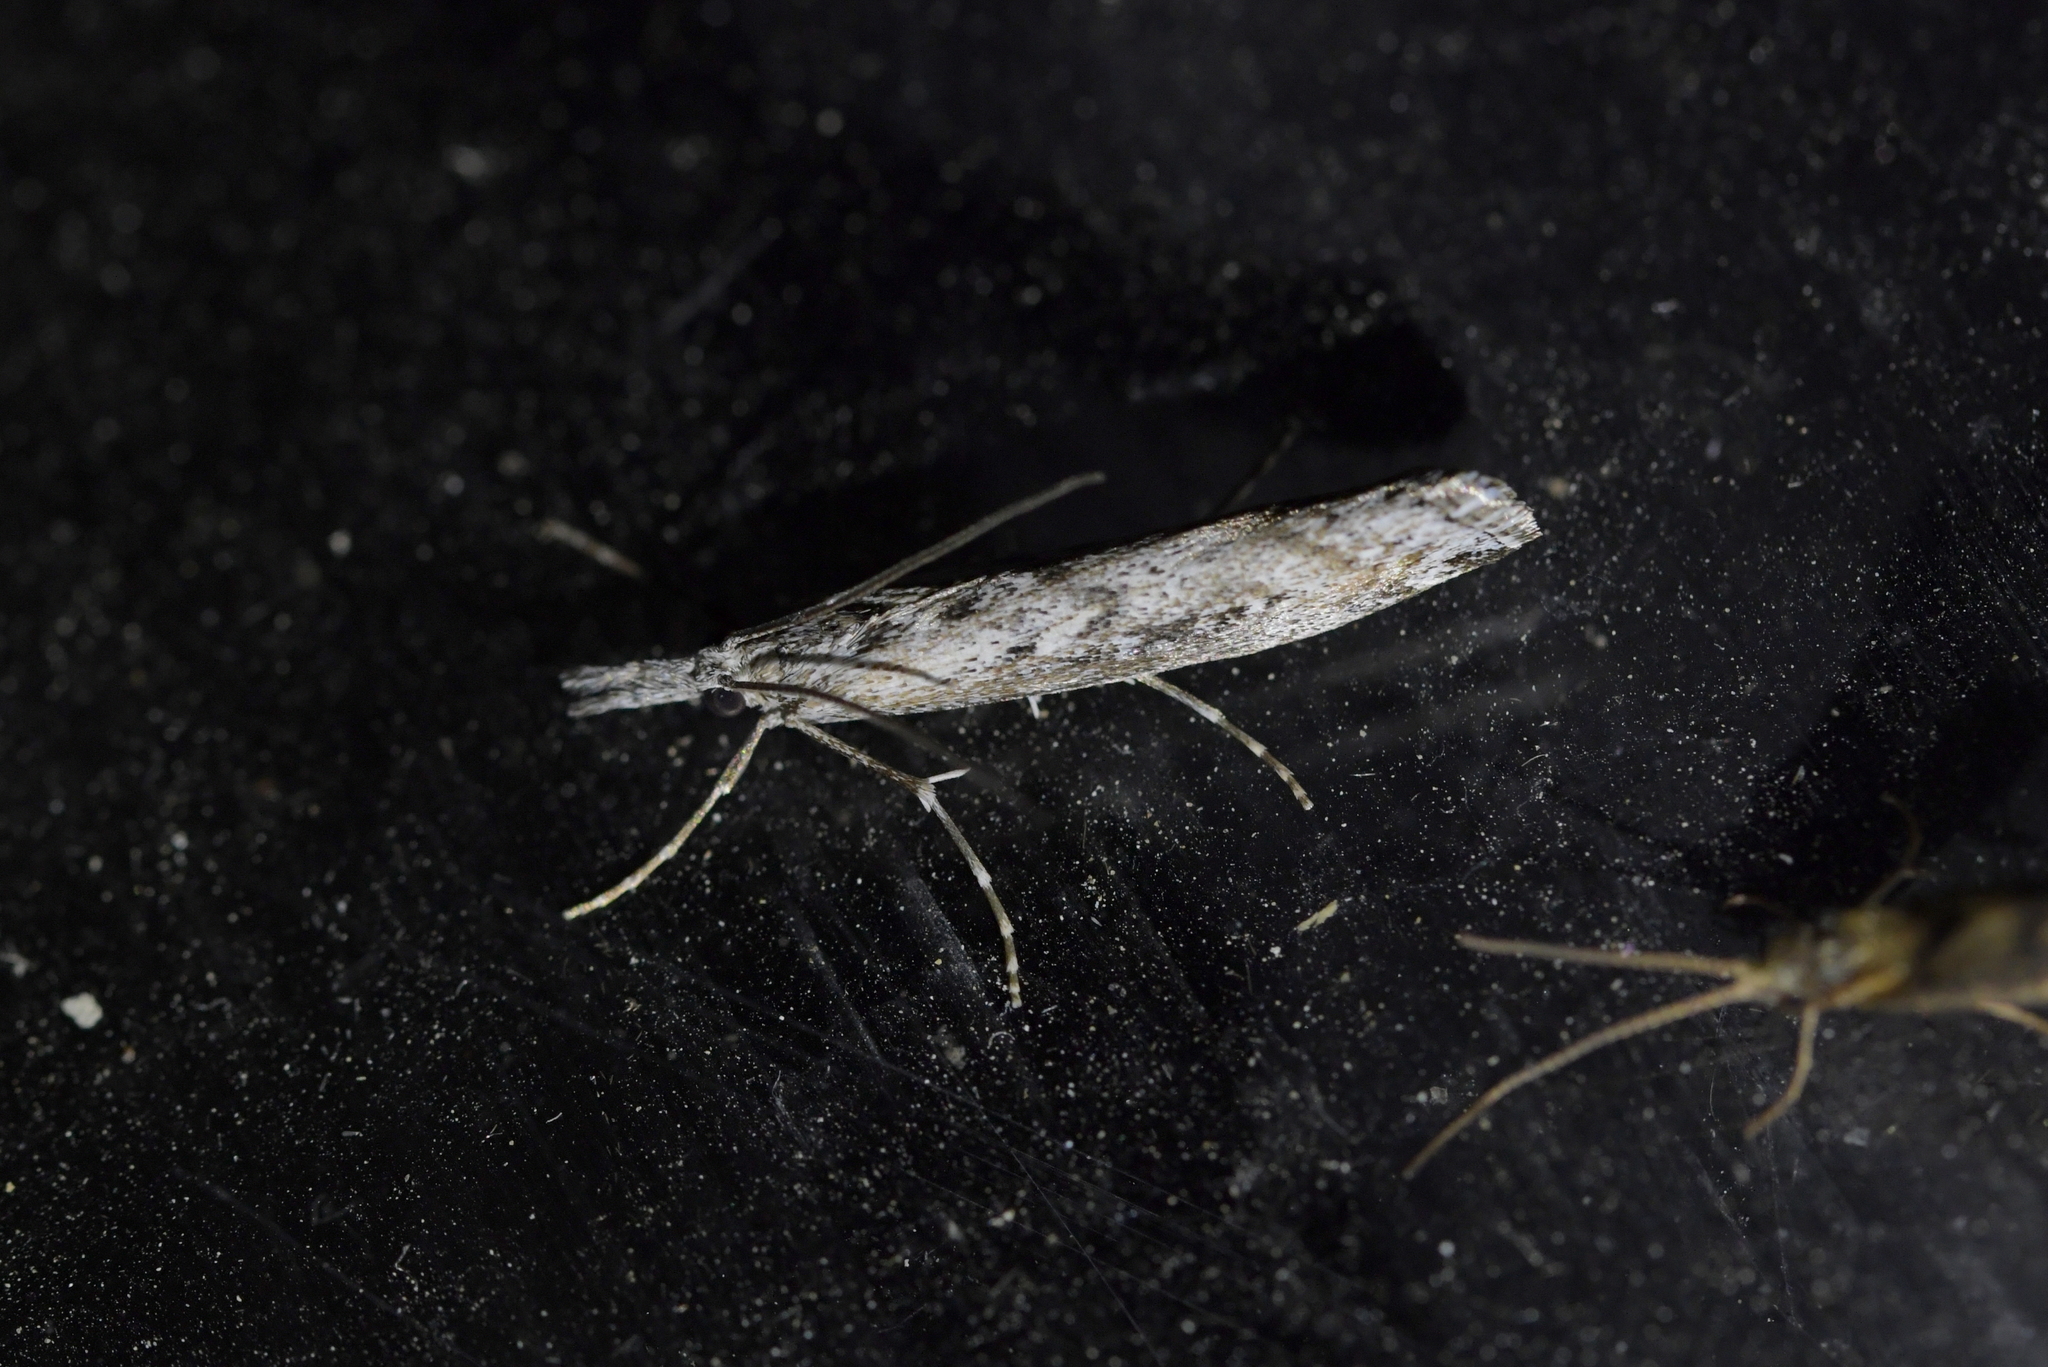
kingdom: Animalia
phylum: Arthropoda
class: Insecta
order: Lepidoptera
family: Crambidae
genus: Orocrambus
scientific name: Orocrambus cyclopicus
